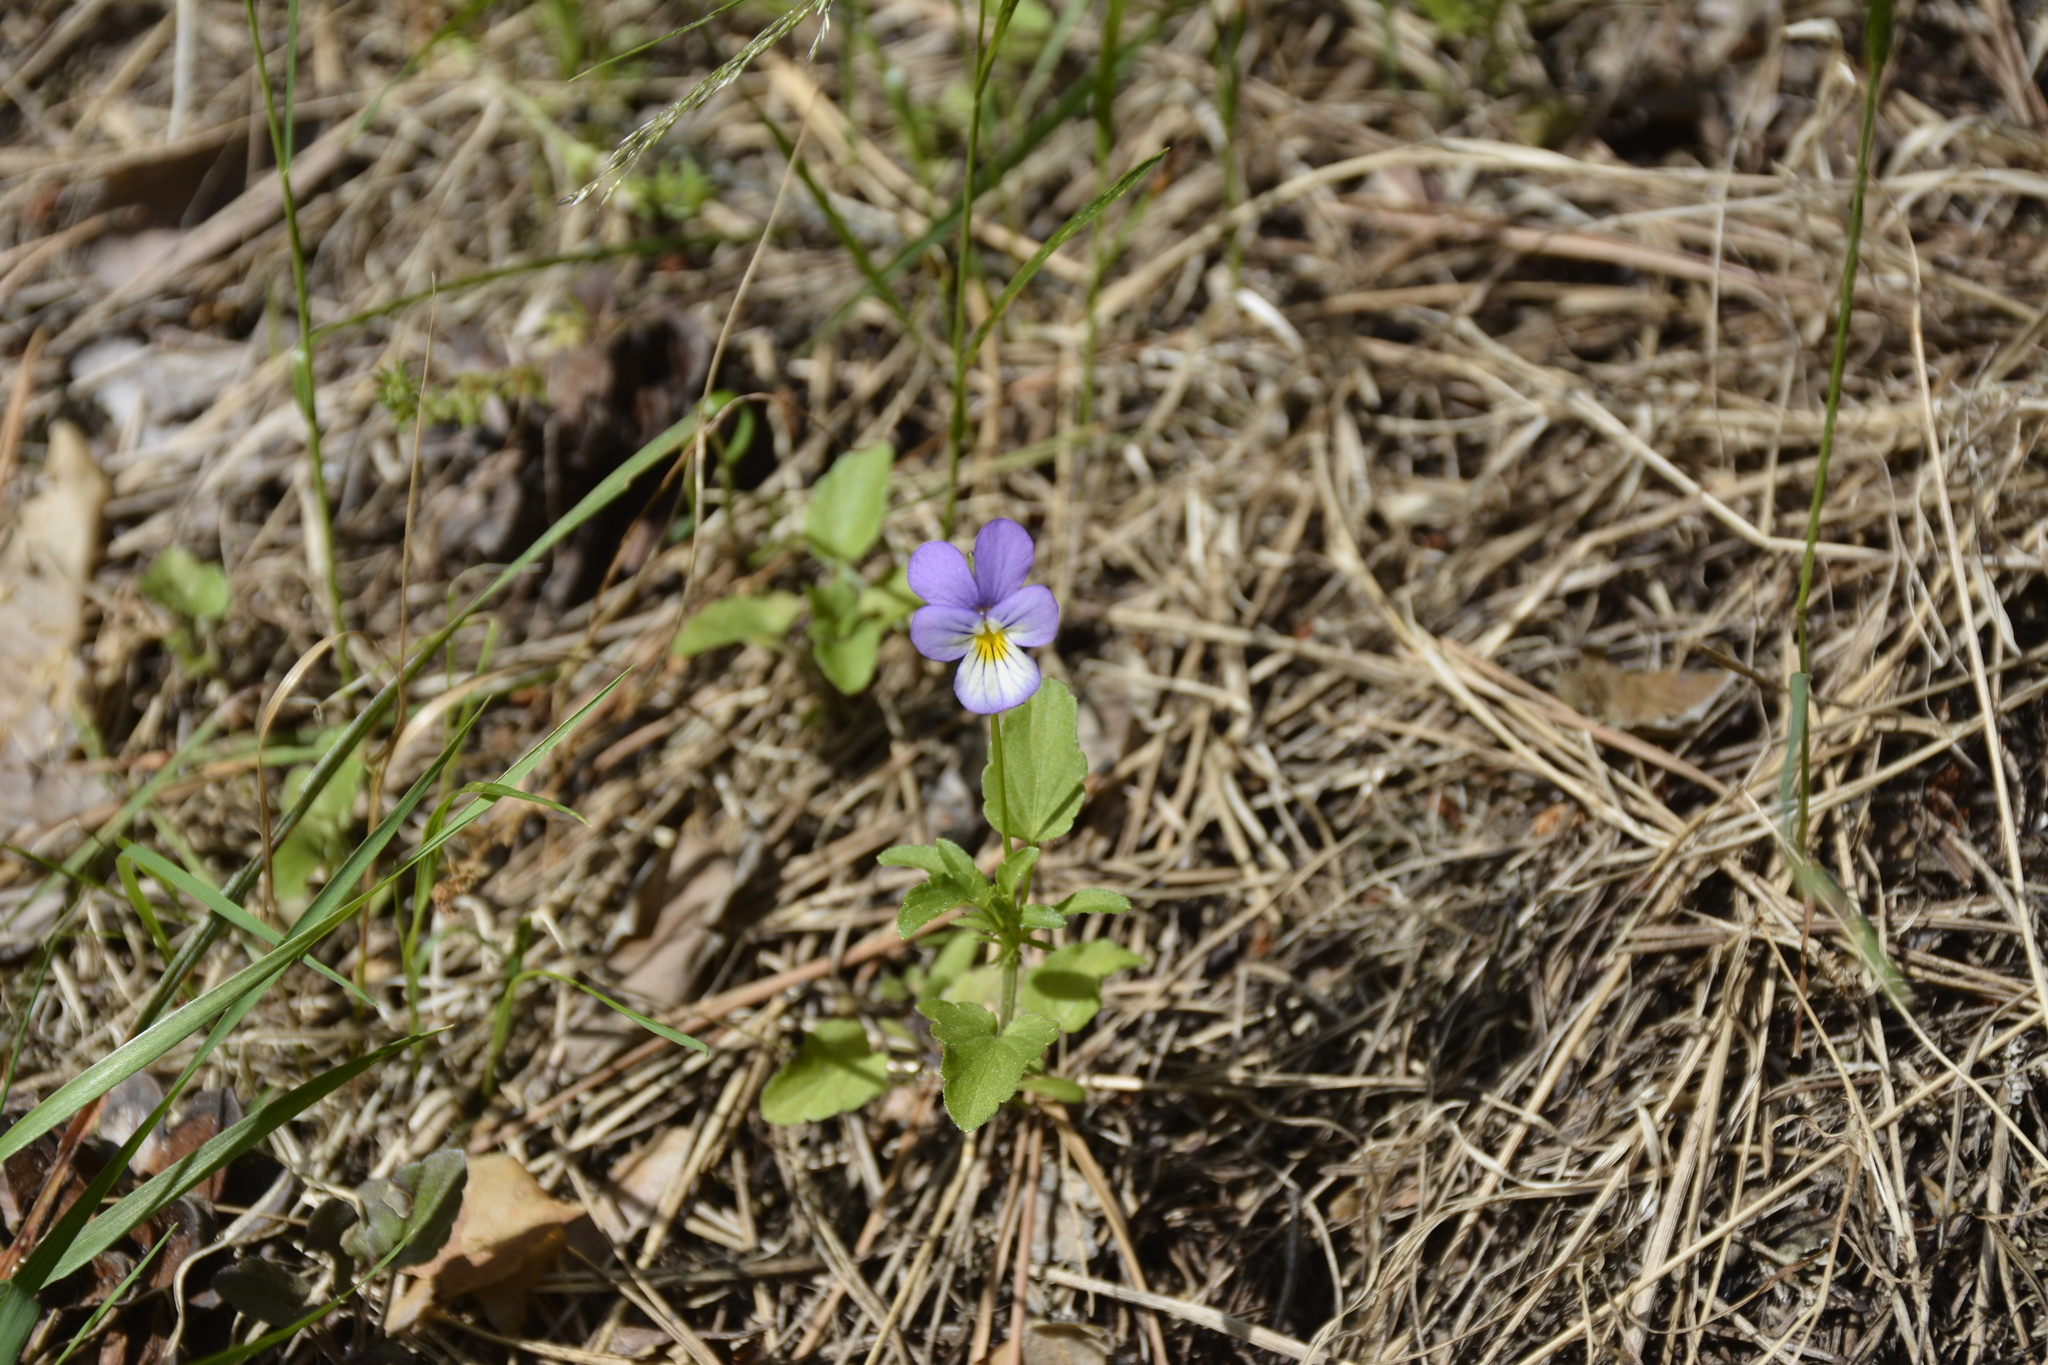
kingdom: Plantae
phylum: Tracheophyta
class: Magnoliopsida
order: Malpighiales
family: Violaceae
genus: Viola
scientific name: Viola tricolor
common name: Pansy
